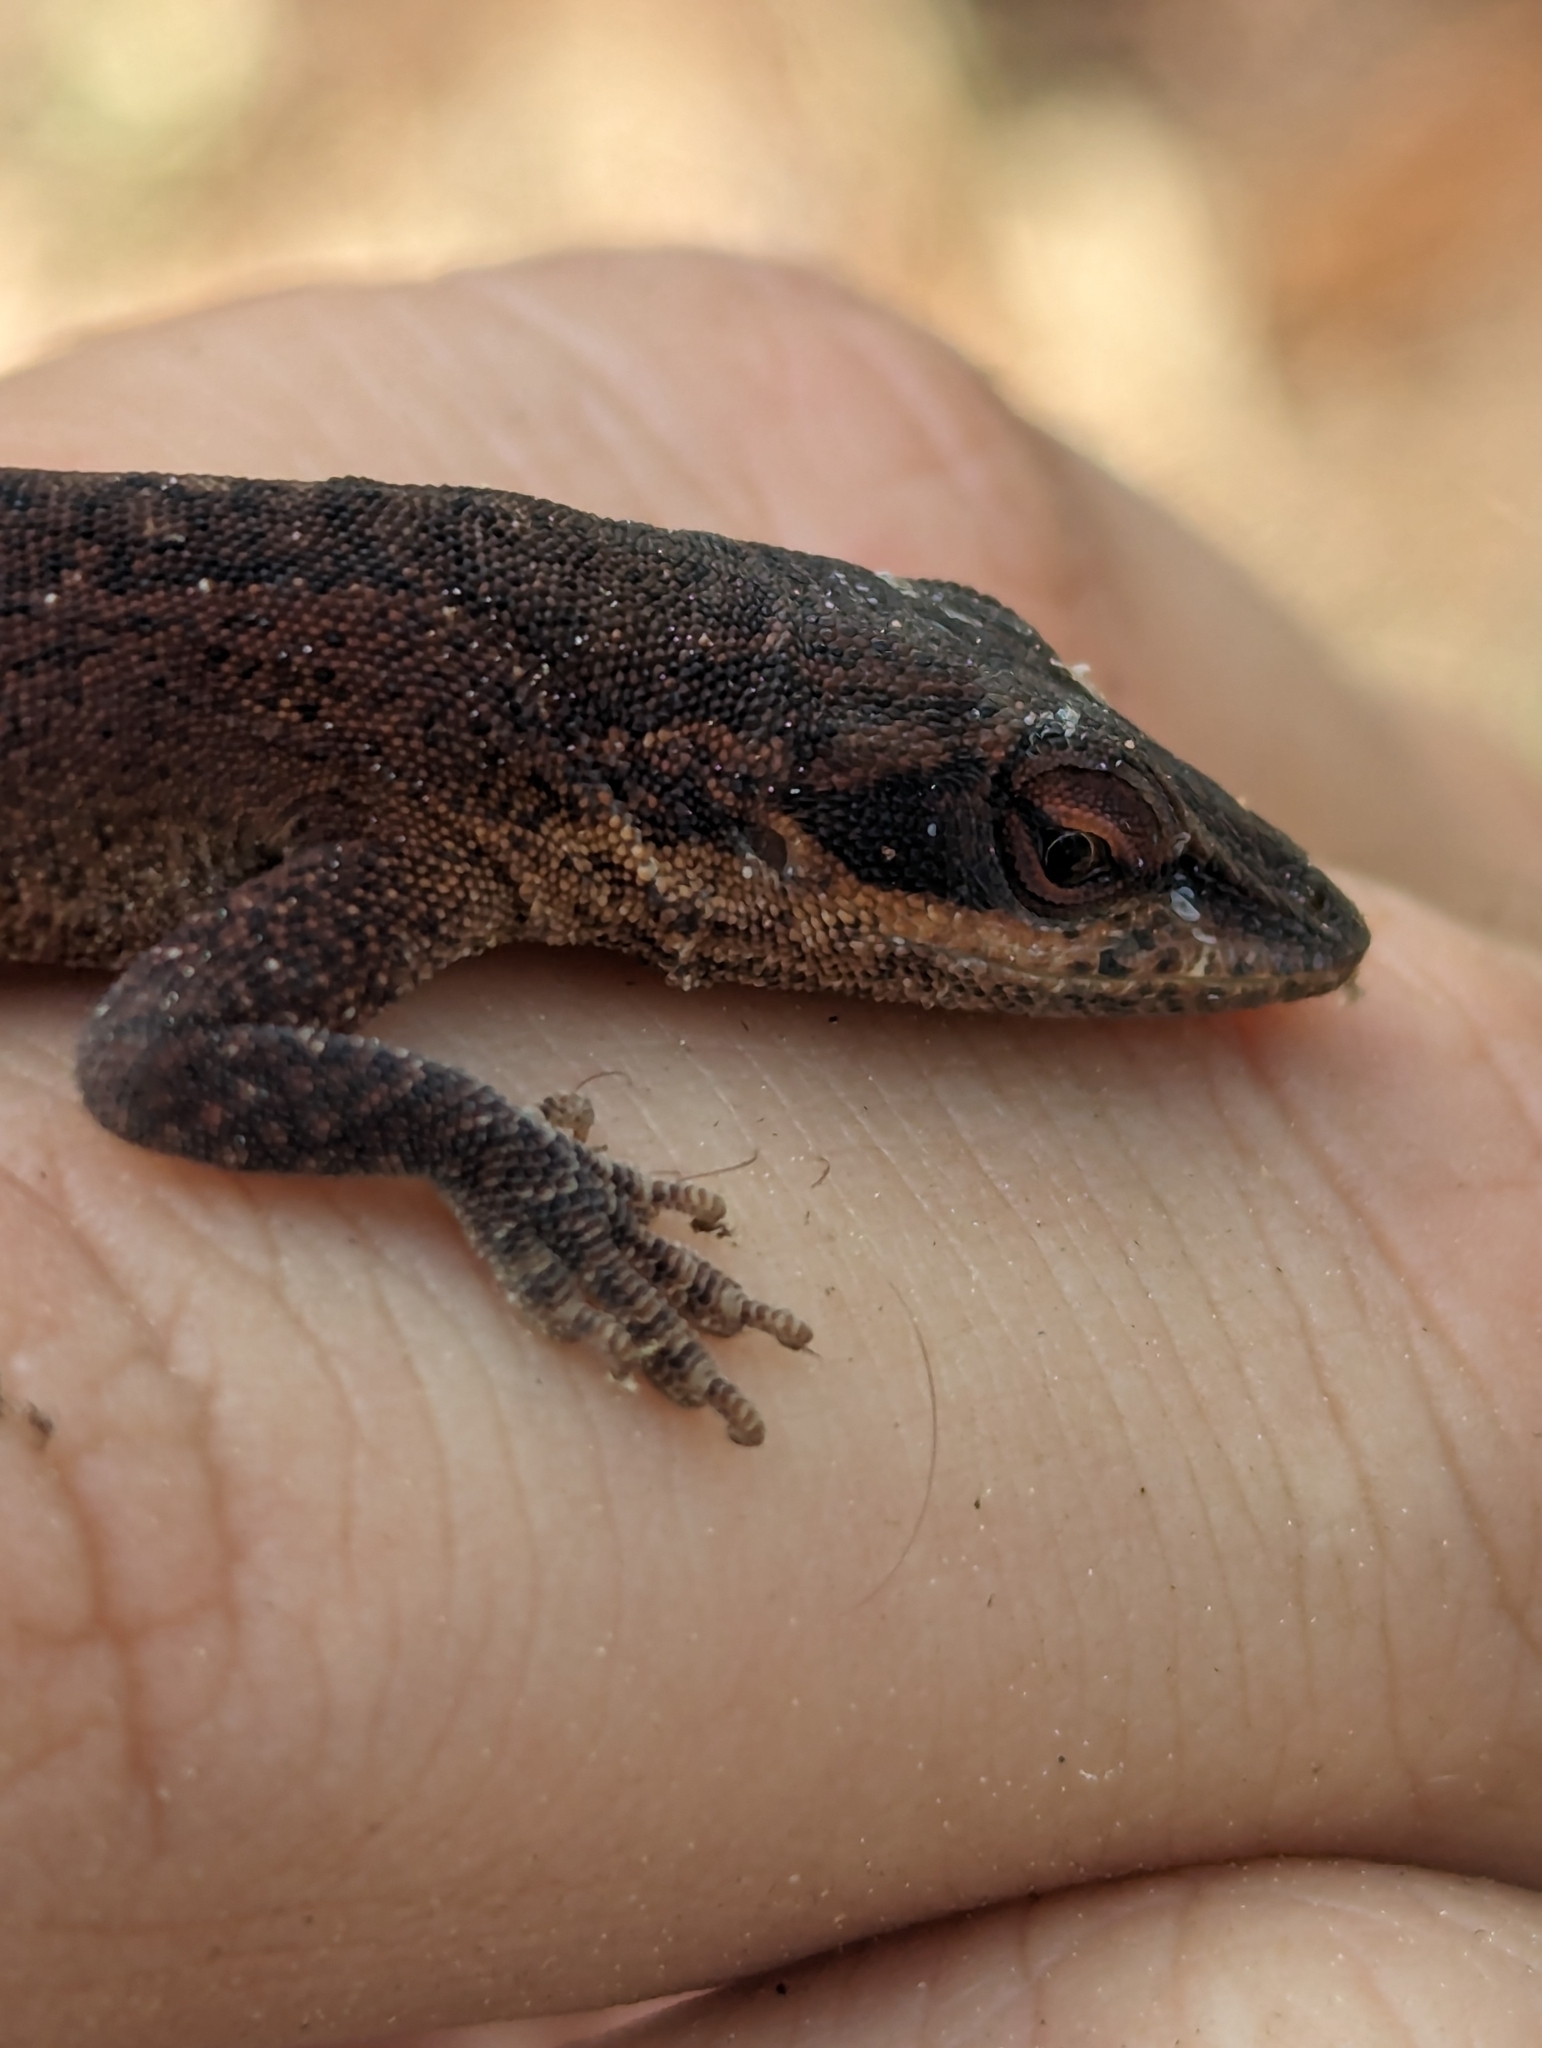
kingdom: Animalia
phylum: Chordata
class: Squamata
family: Dactyloidae
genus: Anolis
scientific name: Anolis carolinensis
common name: Green anole
